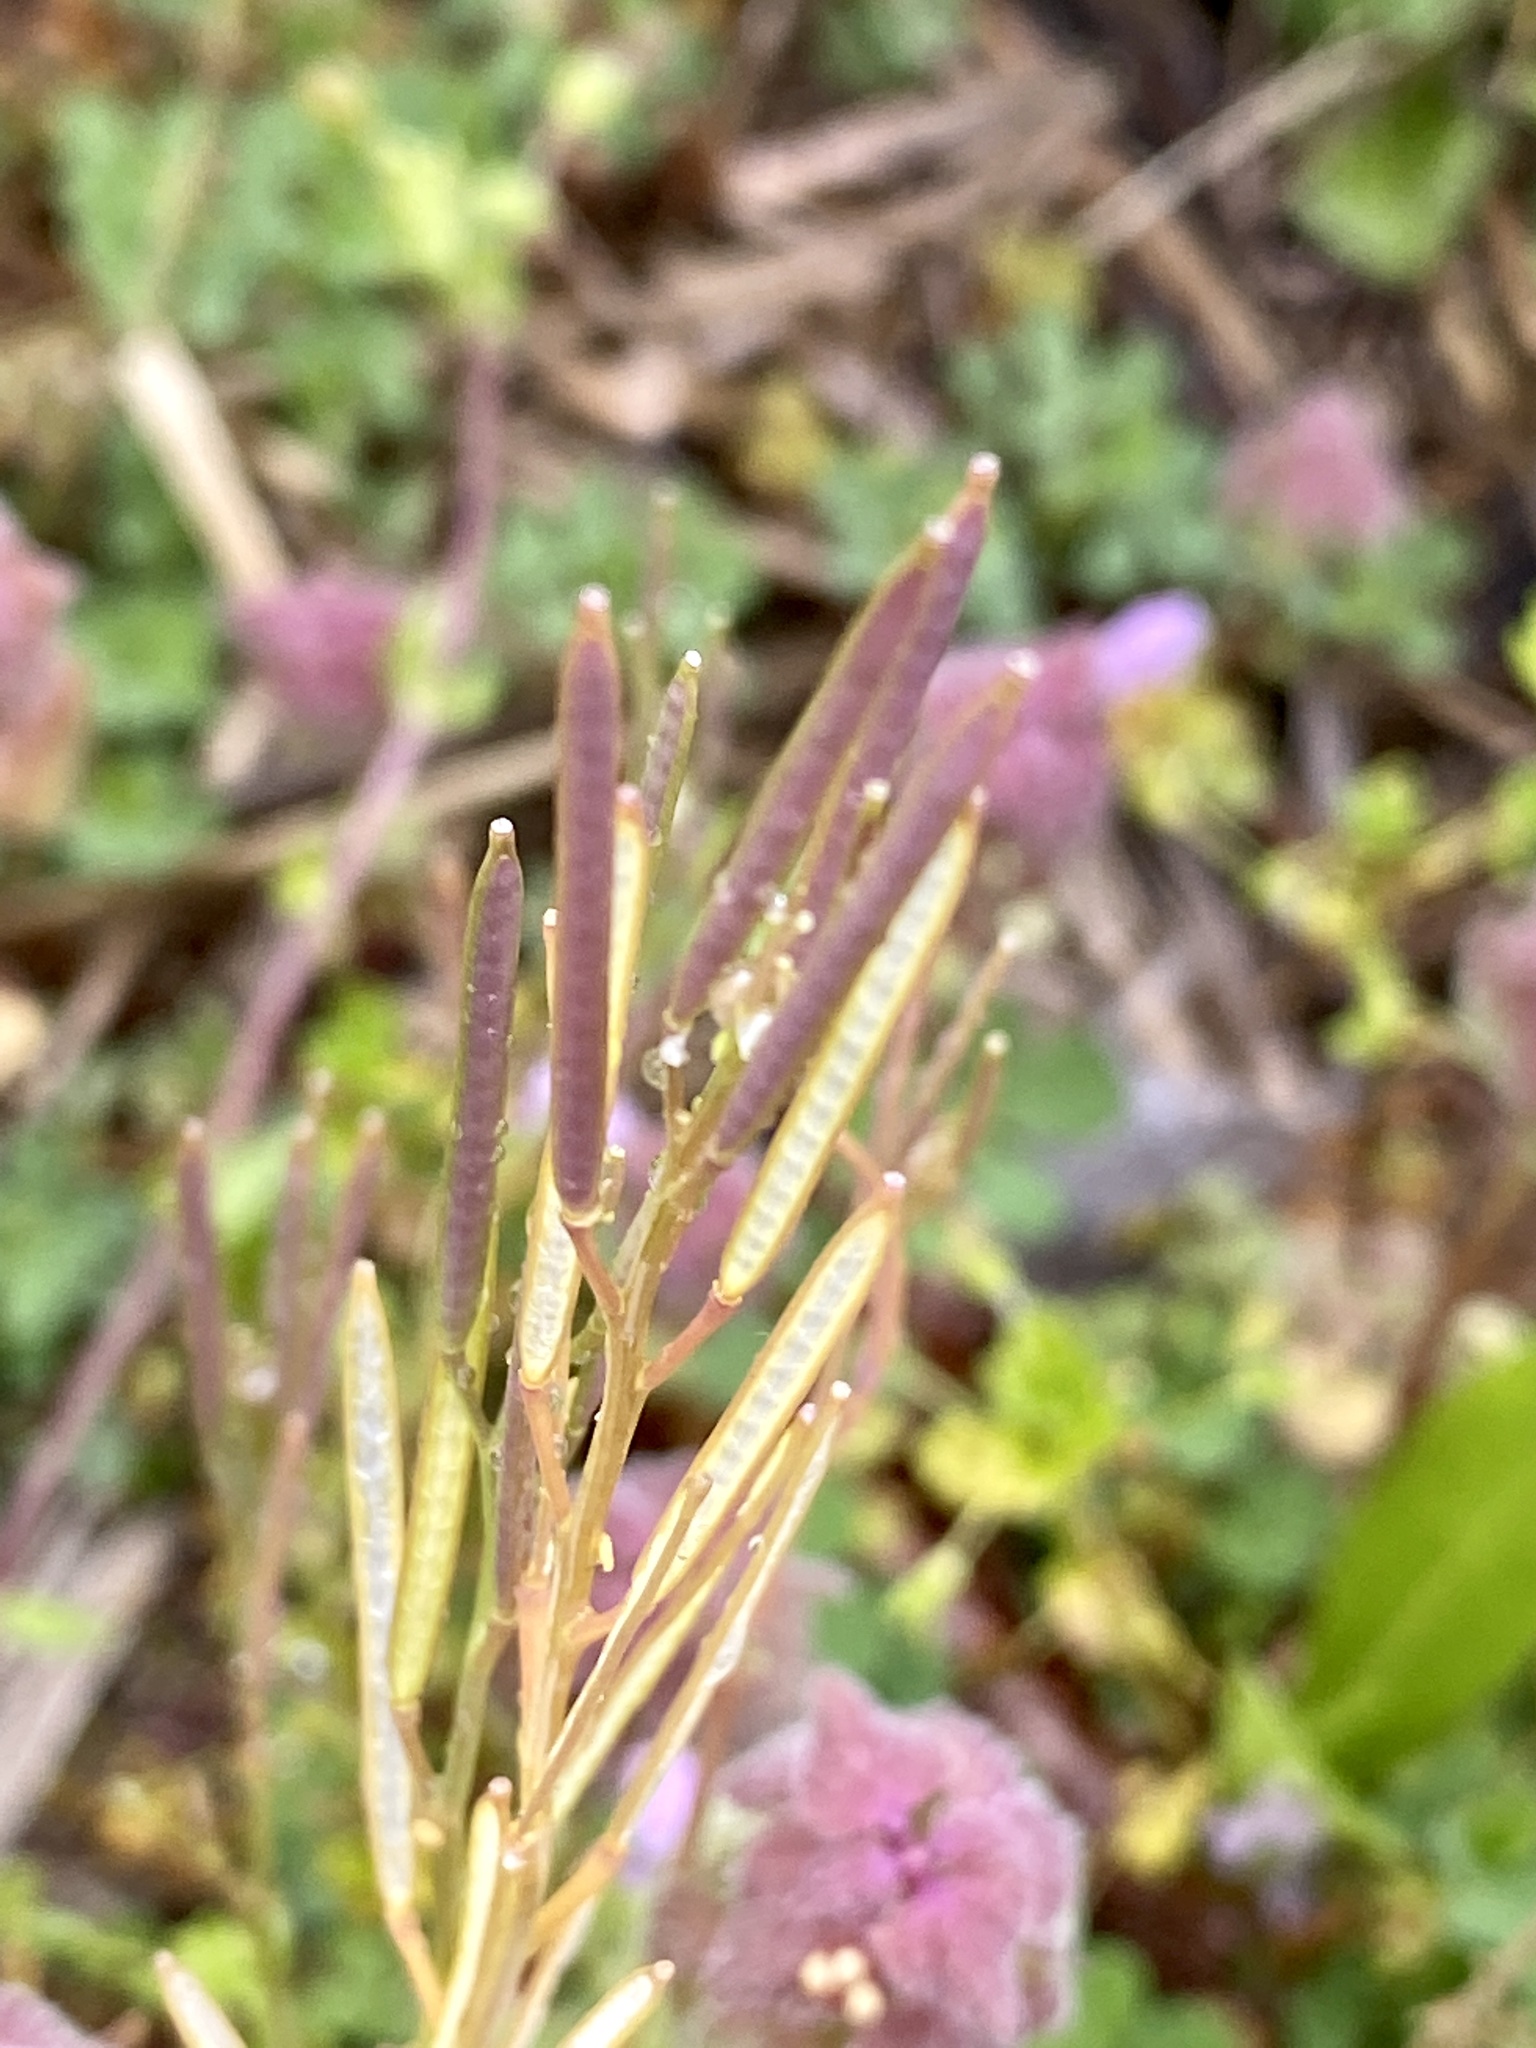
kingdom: Plantae
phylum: Tracheophyta
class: Magnoliopsida
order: Brassicales
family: Brassicaceae
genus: Cardamine
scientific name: Cardamine hirsuta
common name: Hairy bittercress
